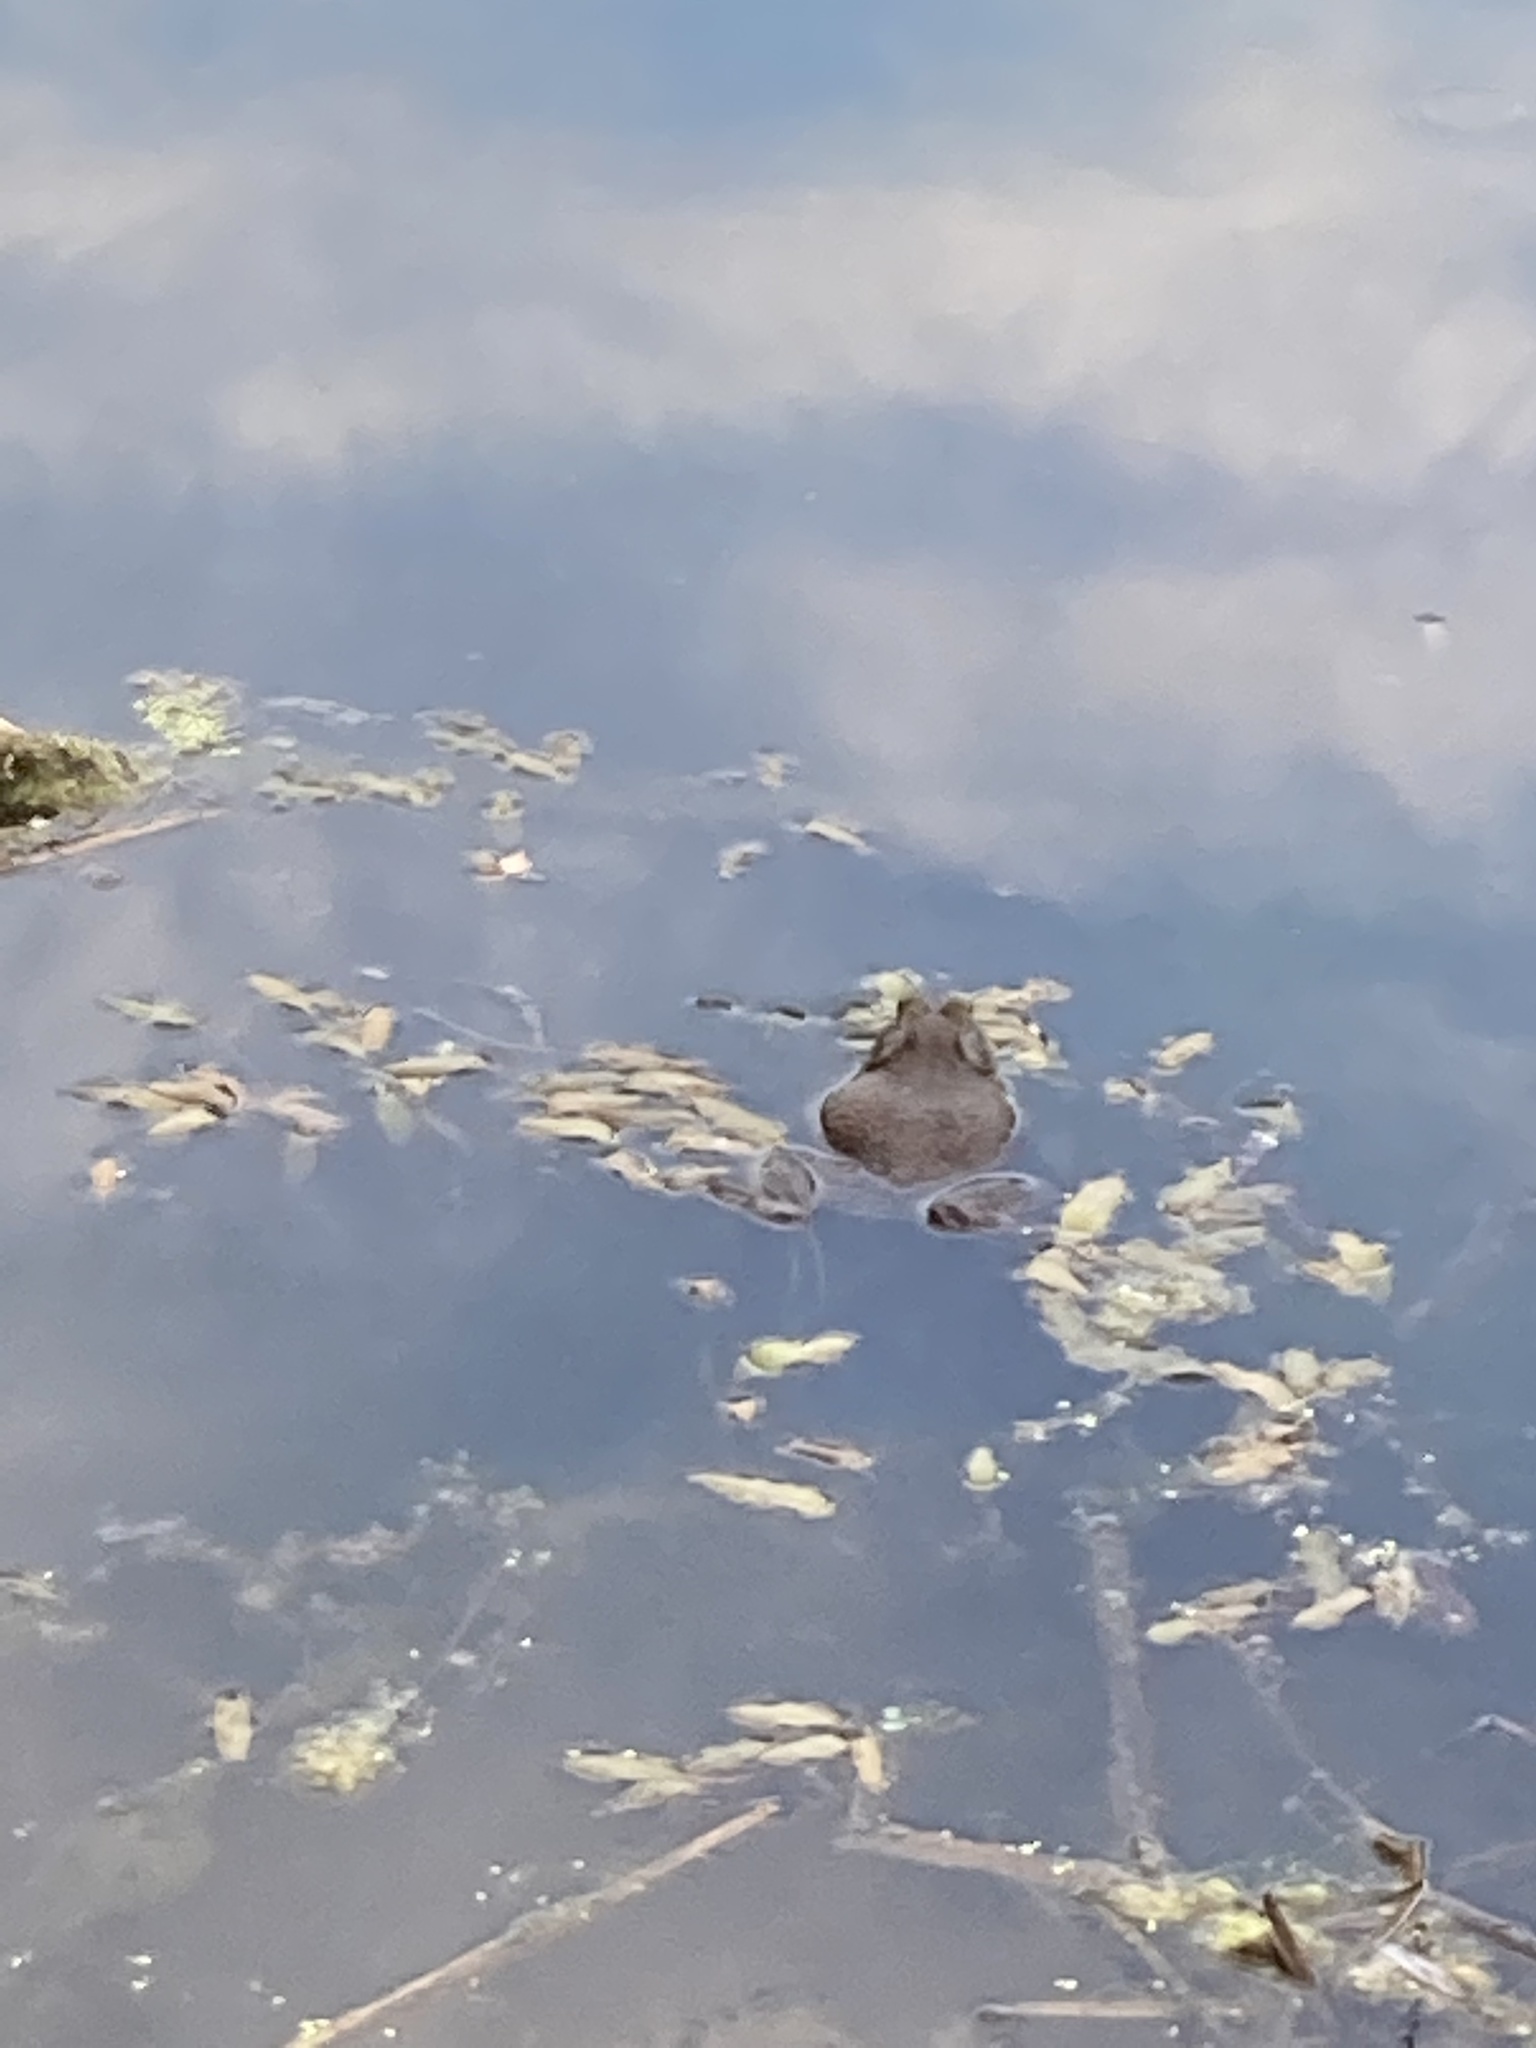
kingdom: Animalia
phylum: Chordata
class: Amphibia
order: Anura
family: Ranidae
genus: Lithobates
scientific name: Lithobates catesbeianus
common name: American bullfrog
